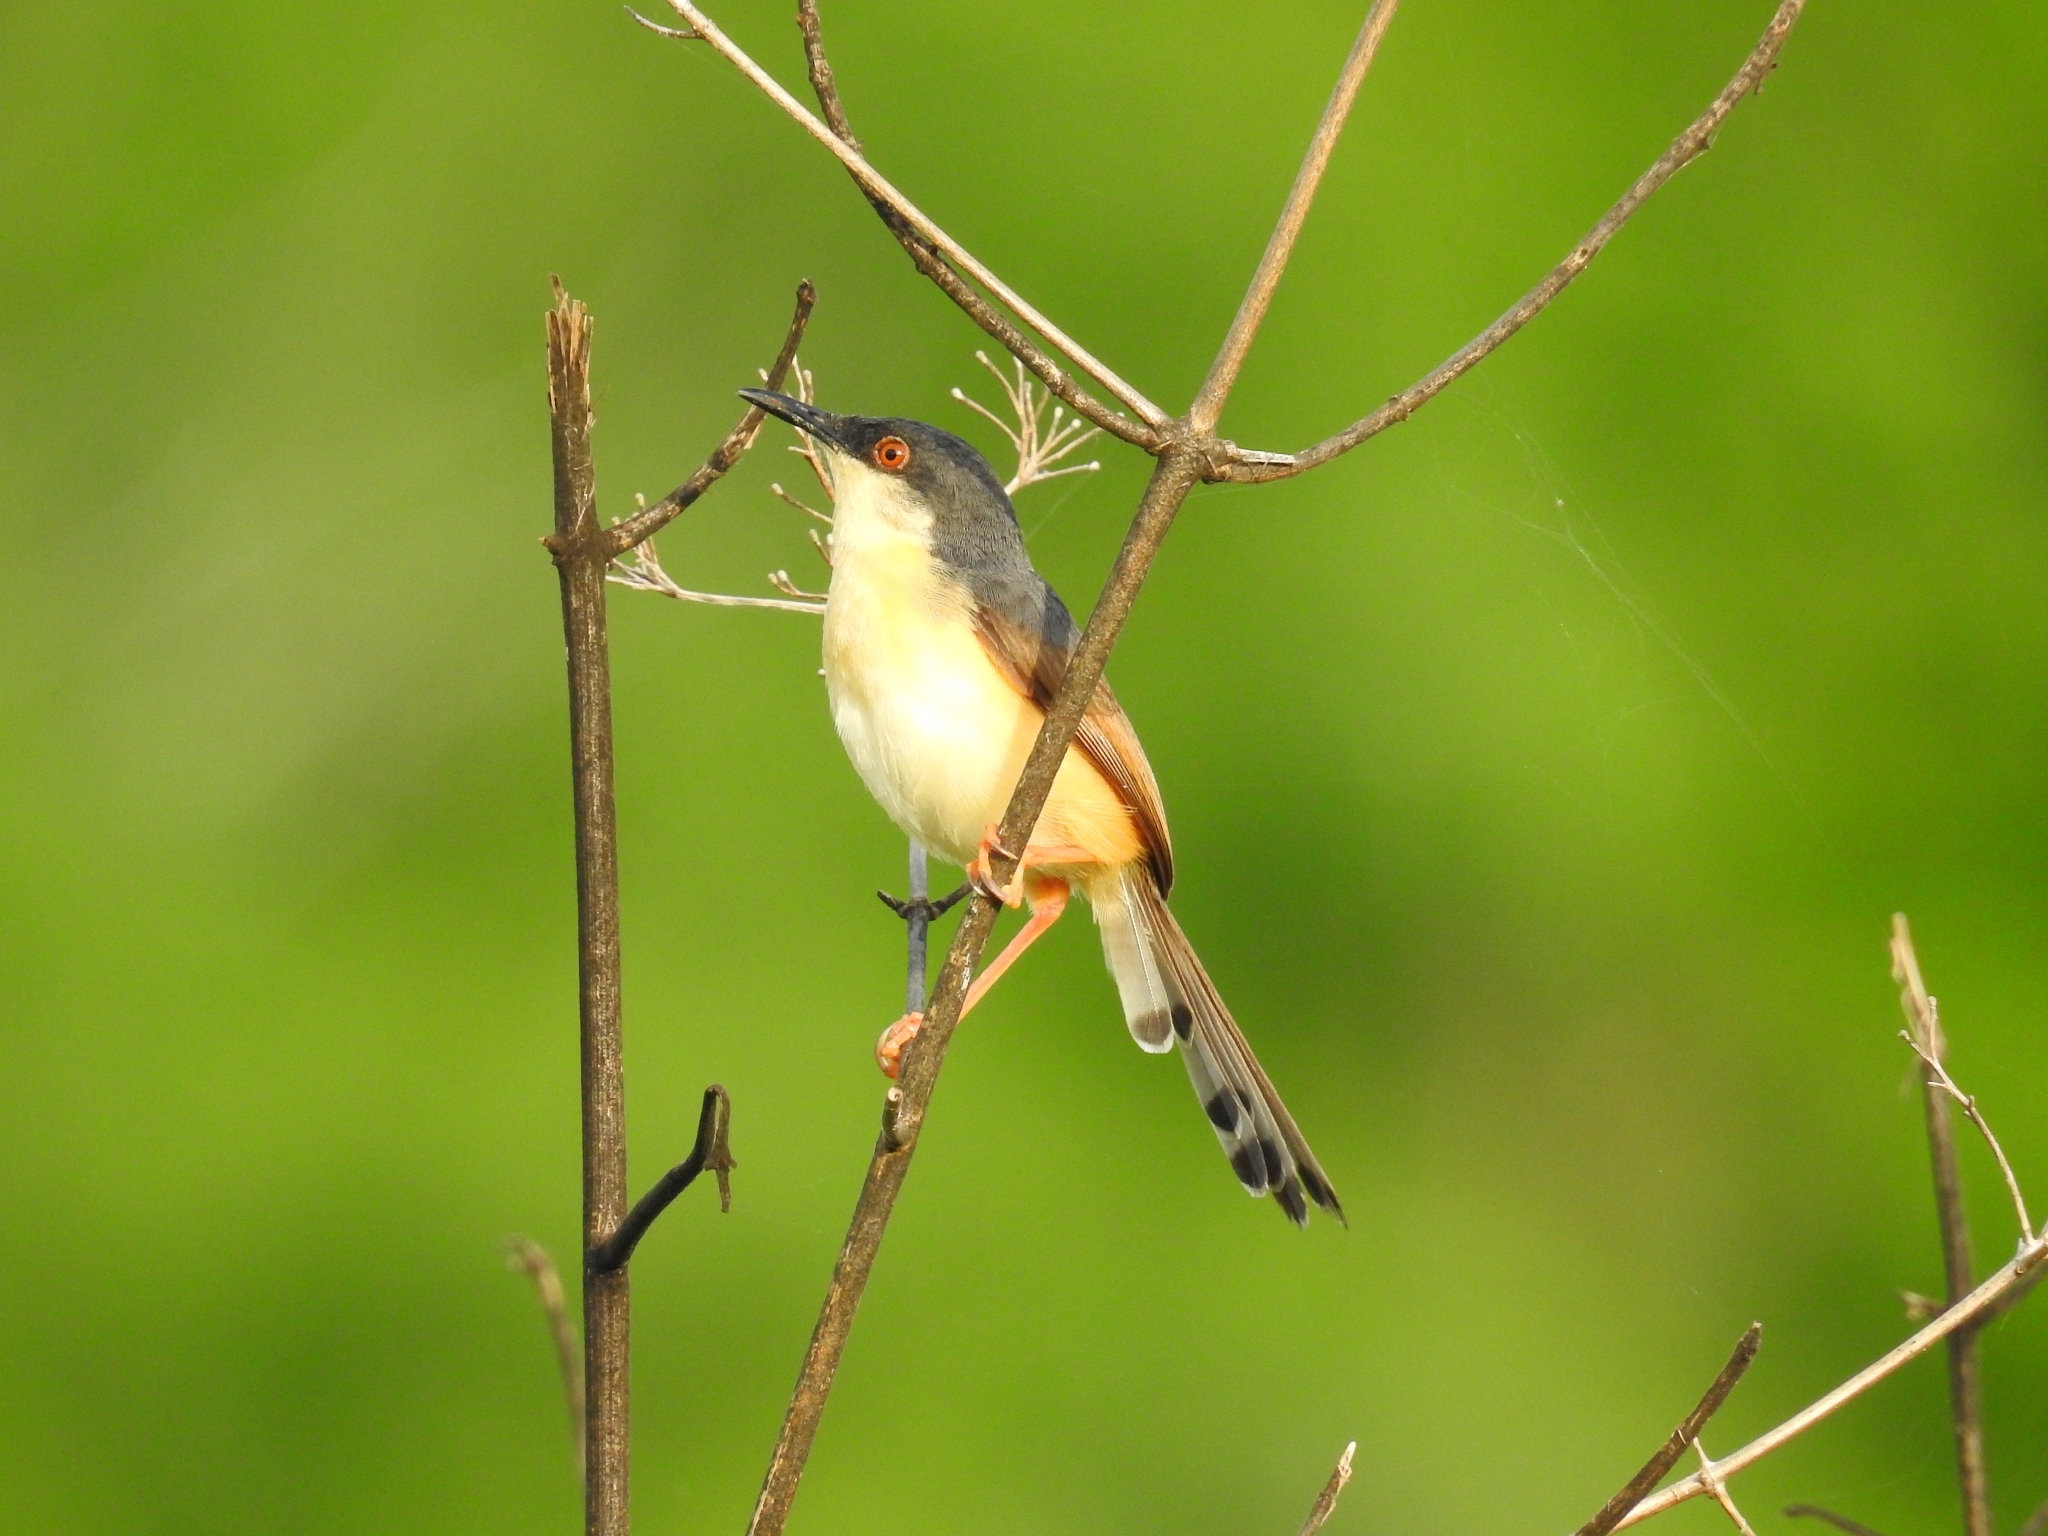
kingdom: Animalia
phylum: Chordata
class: Aves
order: Passeriformes
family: Cisticolidae
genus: Prinia
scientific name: Prinia socialis
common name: Ashy prinia
